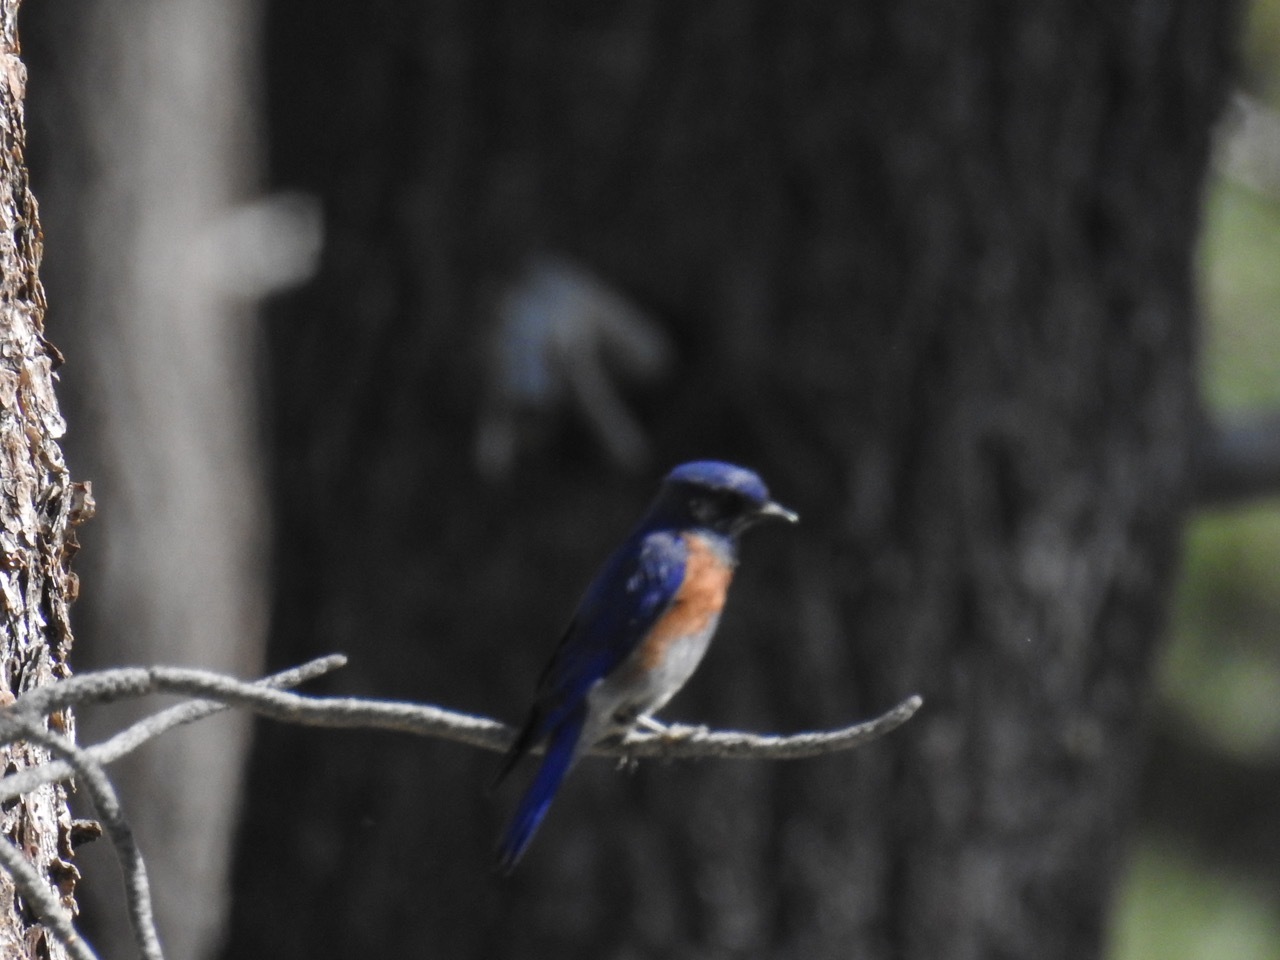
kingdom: Animalia
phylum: Chordata
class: Aves
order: Passeriformes
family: Turdidae
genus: Sialia
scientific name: Sialia mexicana
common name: Western bluebird
